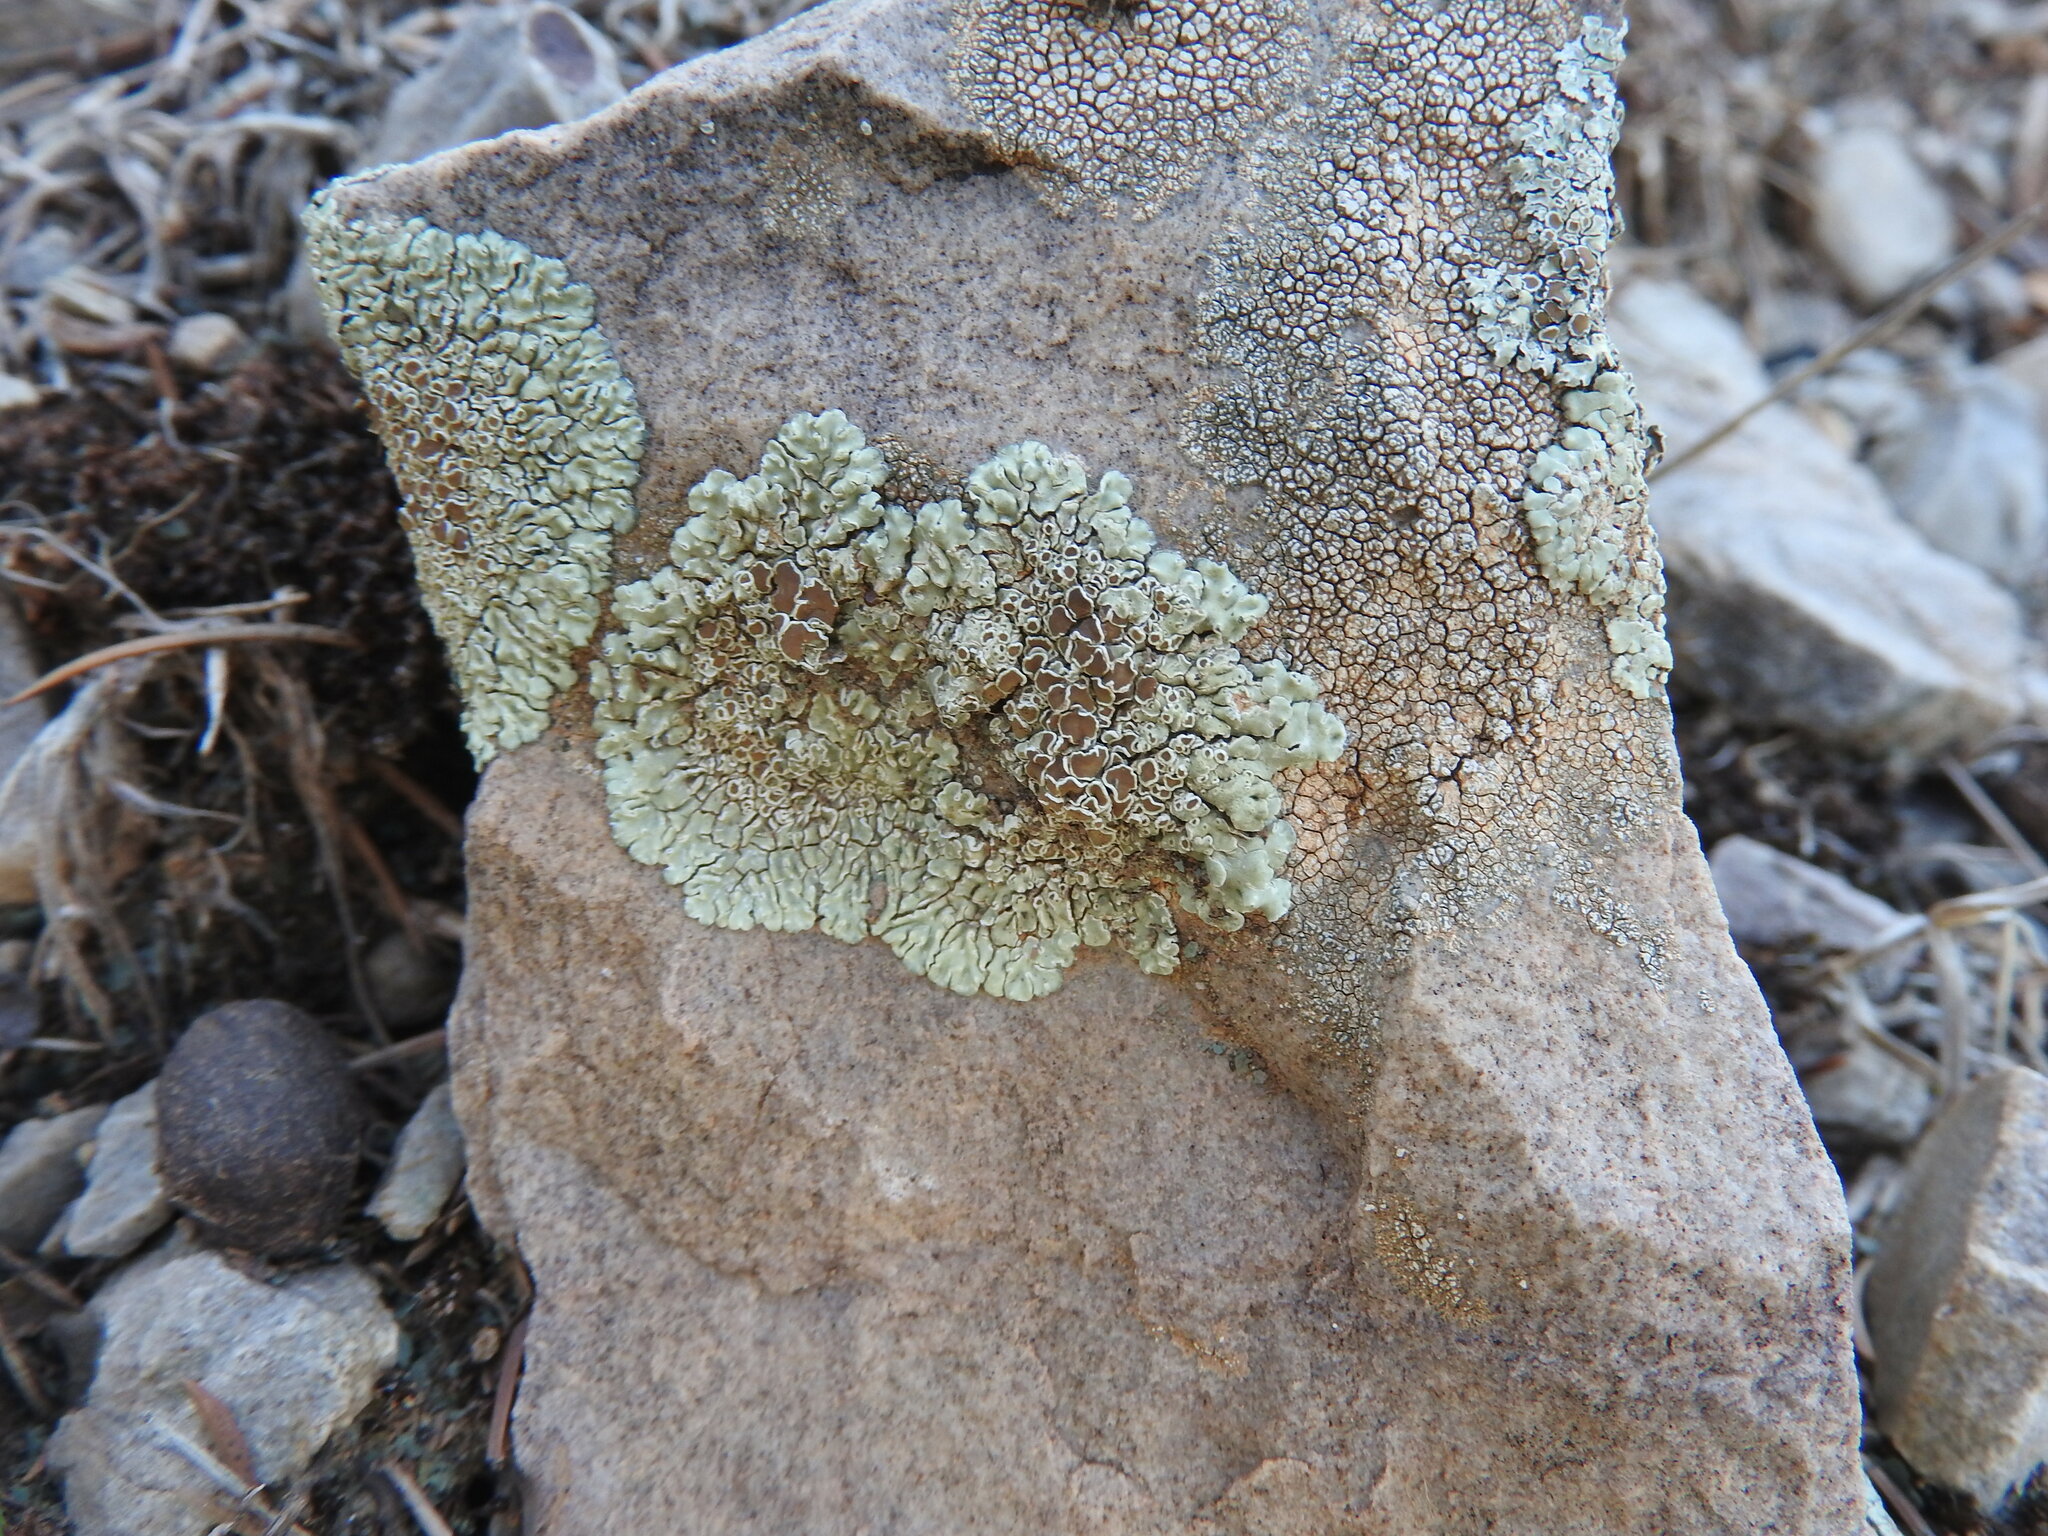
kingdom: Fungi
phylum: Ascomycota
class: Lecanoromycetes
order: Lecanorales
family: Lecanoraceae
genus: Protoparmeliopsis
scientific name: Protoparmeliopsis muralis
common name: Stonewall rim lichen
